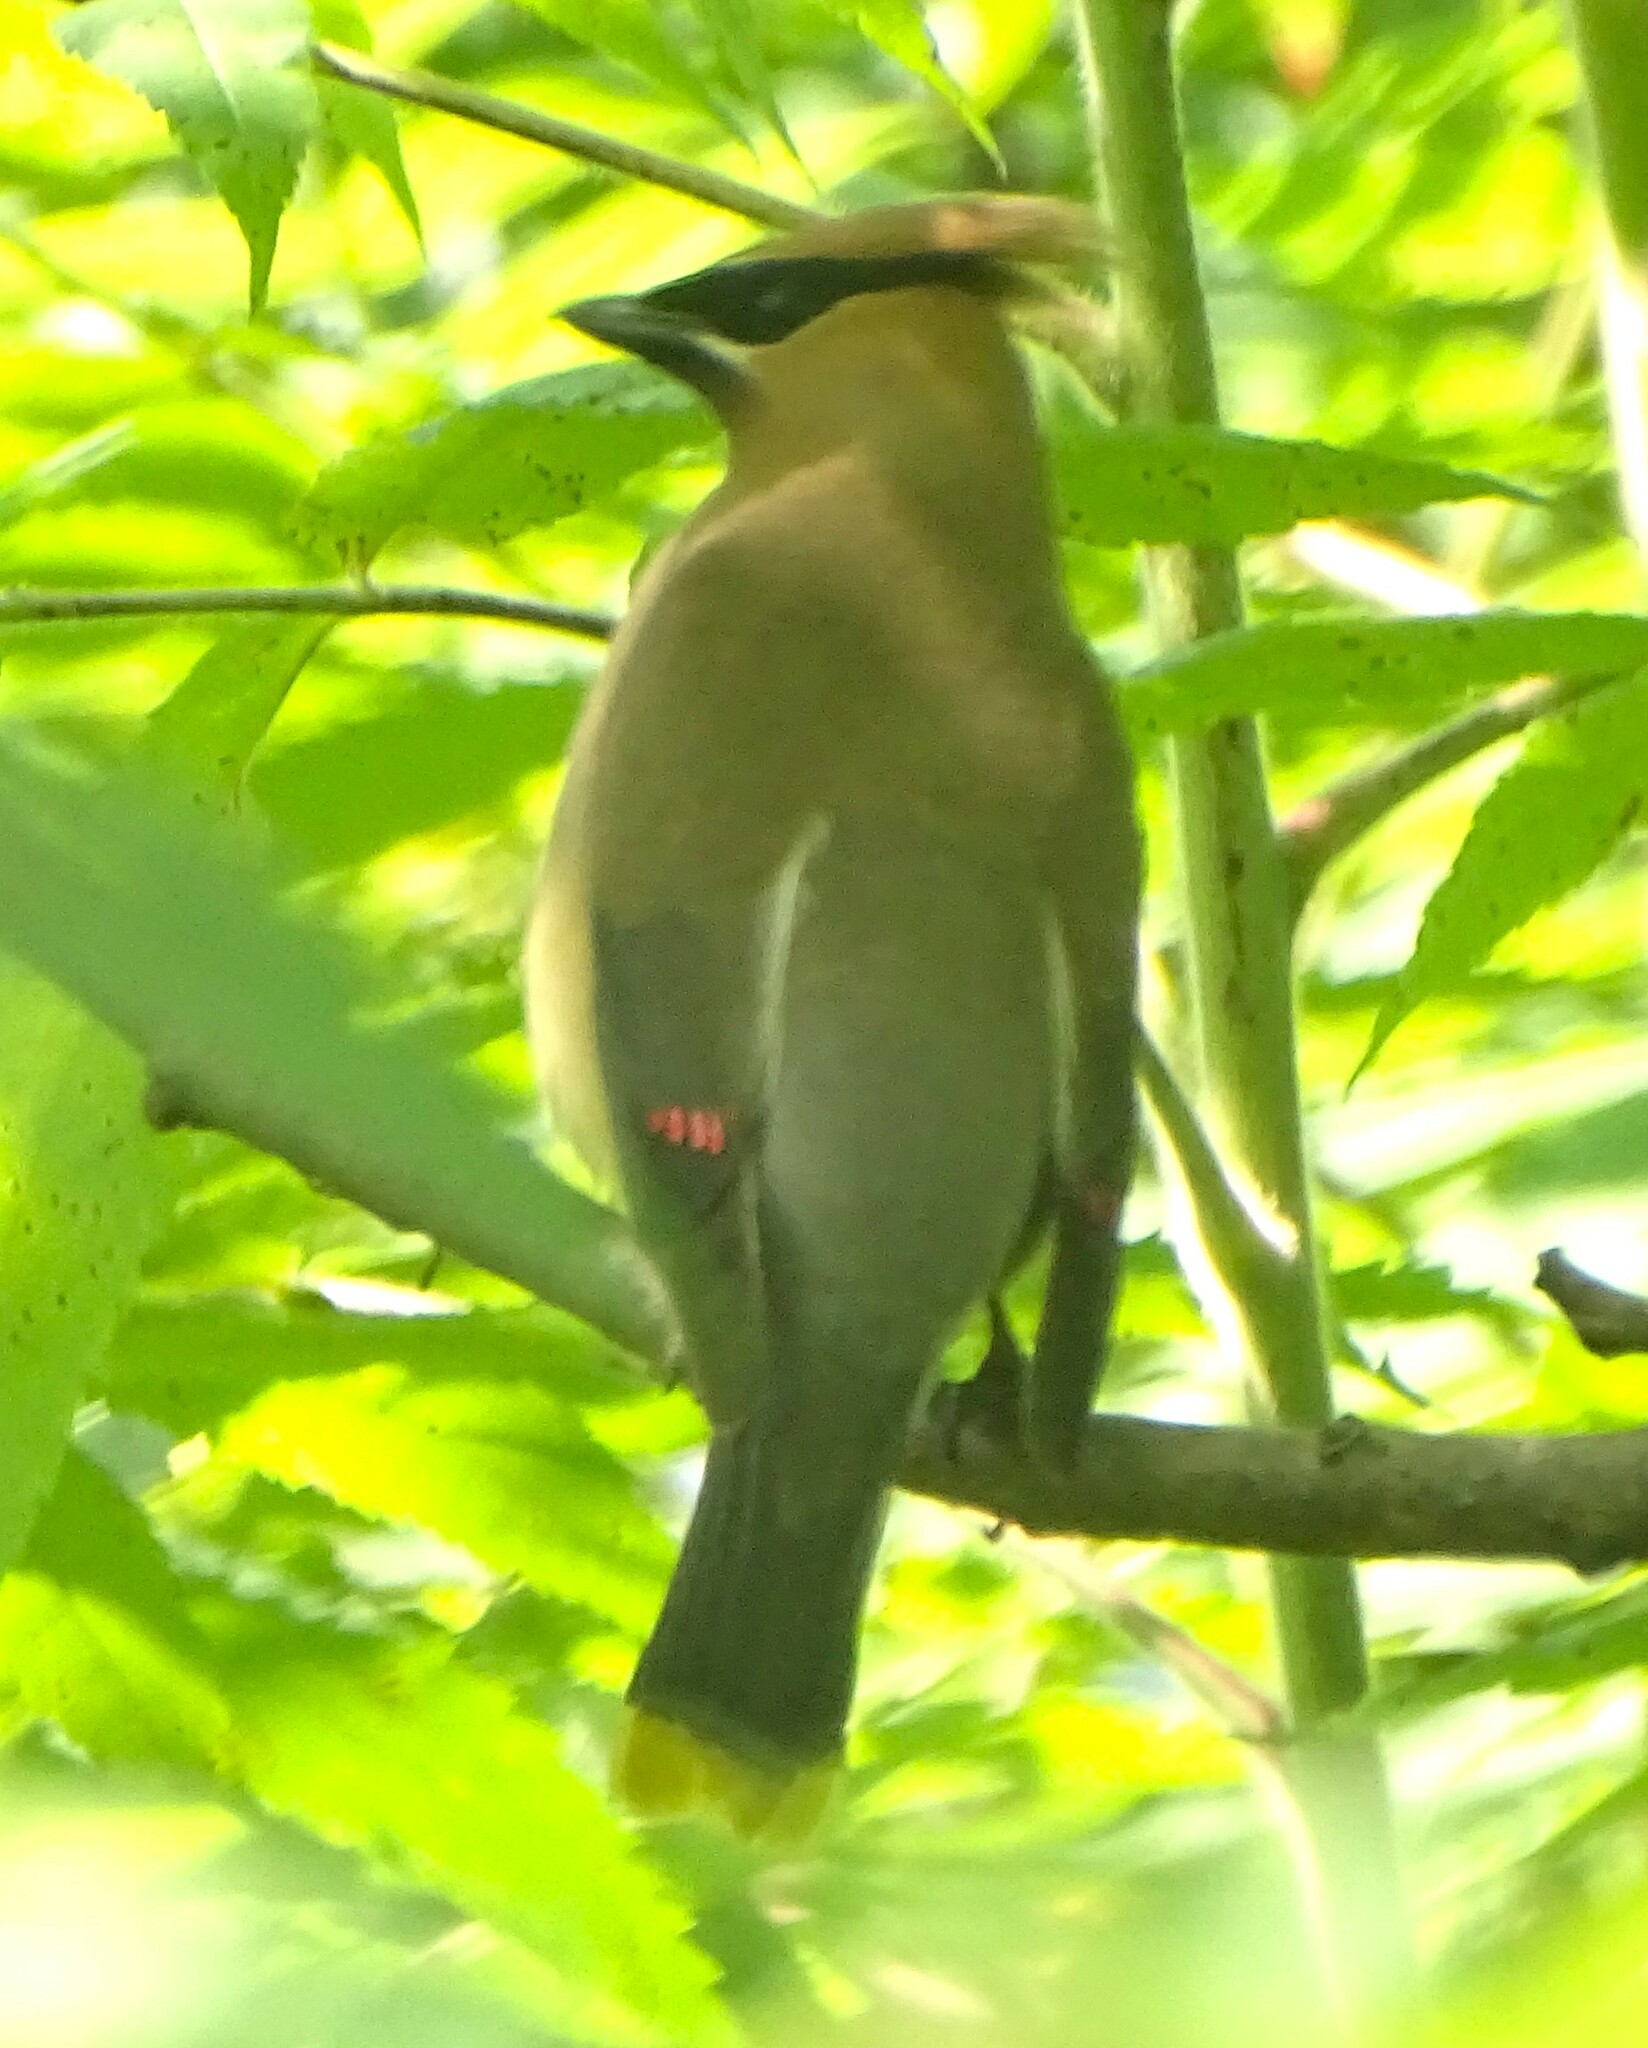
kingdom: Animalia
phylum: Chordata
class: Aves
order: Passeriformes
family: Bombycillidae
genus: Bombycilla
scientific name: Bombycilla cedrorum
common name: Cedar waxwing
